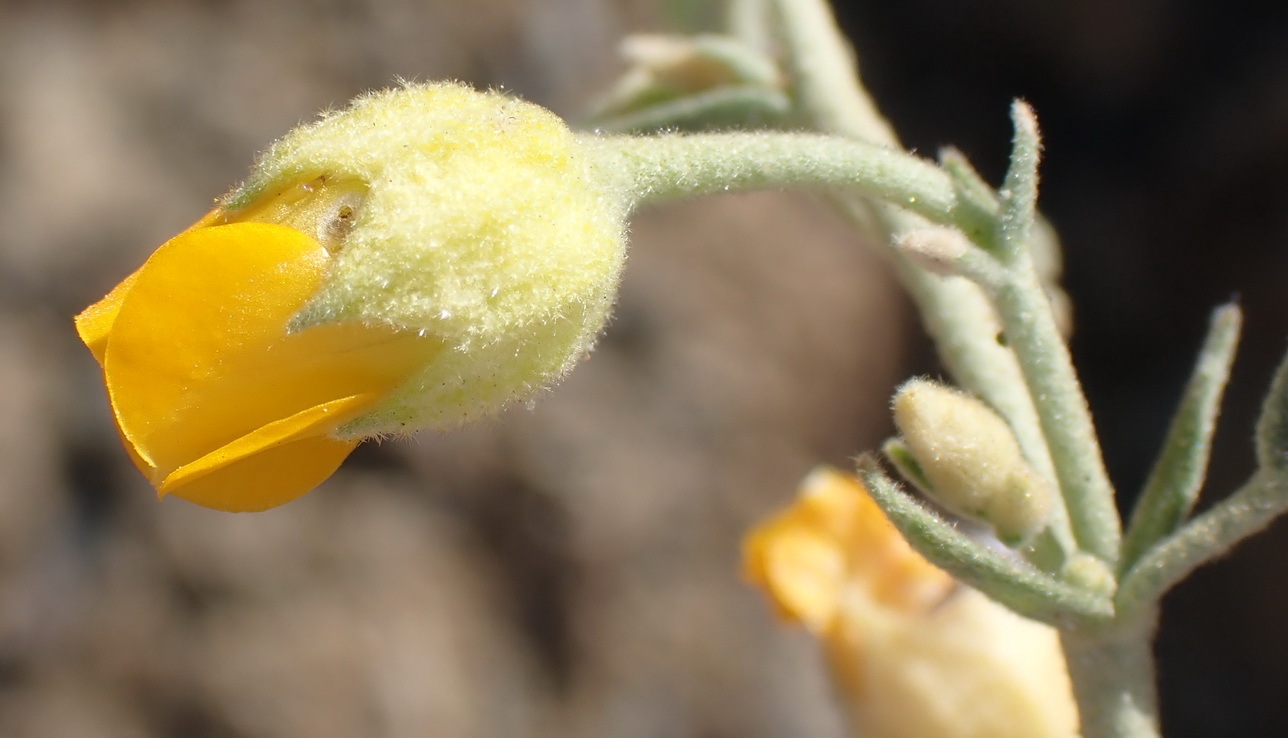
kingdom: Plantae
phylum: Tracheophyta
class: Magnoliopsida
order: Malvales
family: Malvaceae
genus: Hermannia
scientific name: Hermannia althaeifolia
